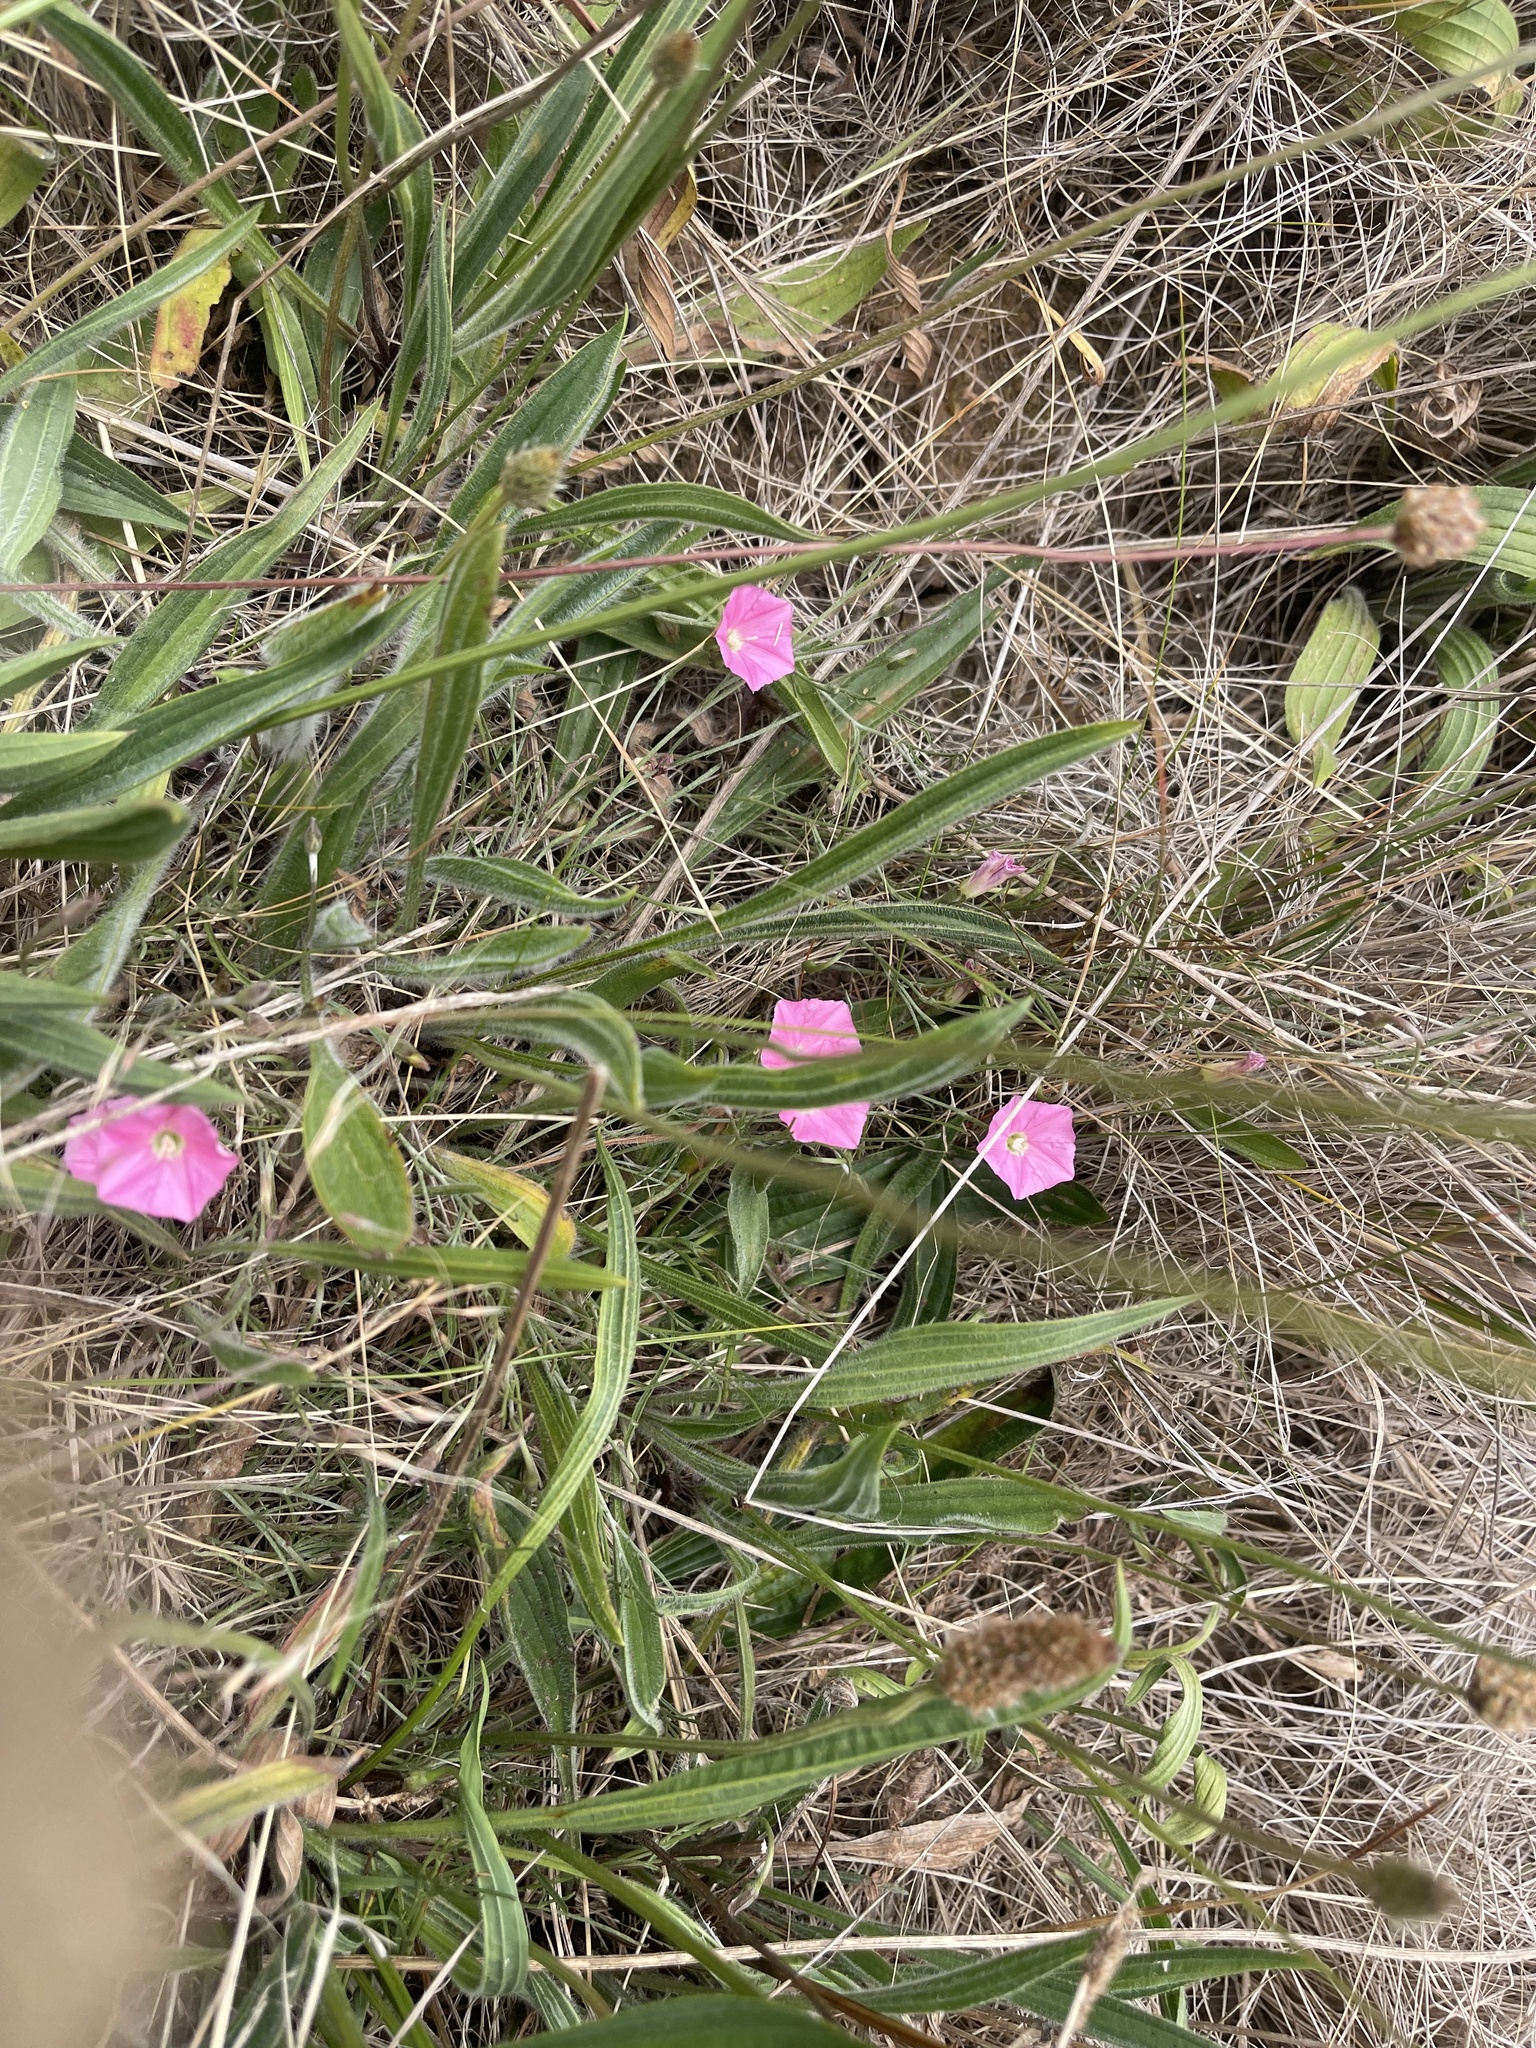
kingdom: Plantae
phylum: Tracheophyta
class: Magnoliopsida
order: Solanales
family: Convolvulaceae
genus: Convolvulus
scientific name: Convolvulus angustissimus
